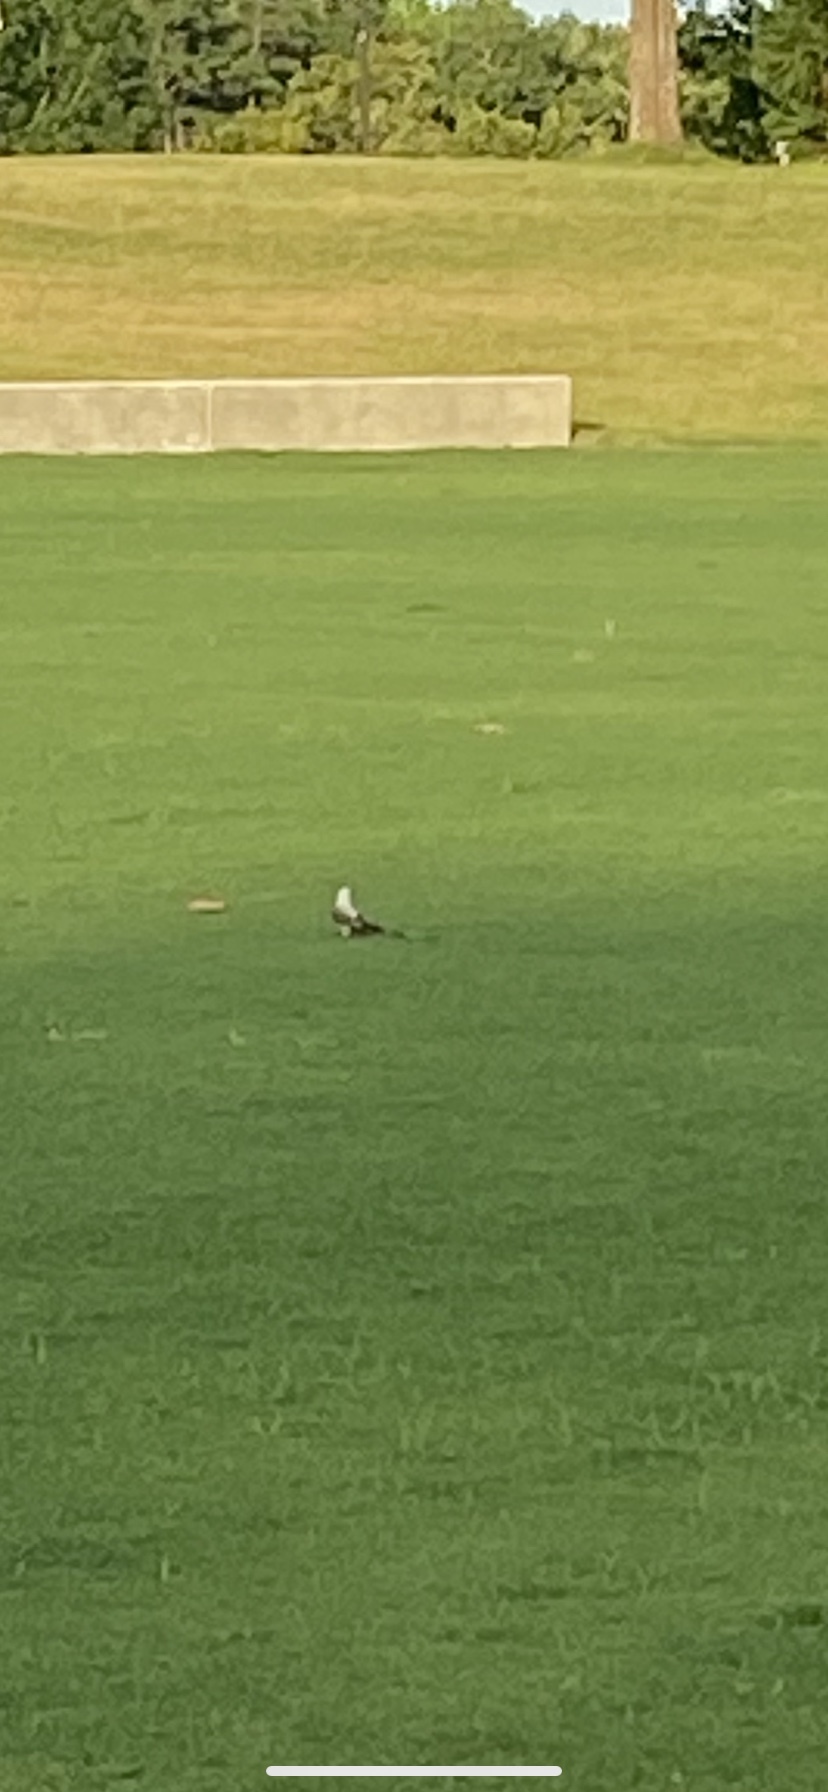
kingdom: Animalia
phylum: Chordata
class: Aves
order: Passeriformes
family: Tyrannidae
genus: Tyrannus
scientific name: Tyrannus forficatus
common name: Scissor-tailed flycatcher
